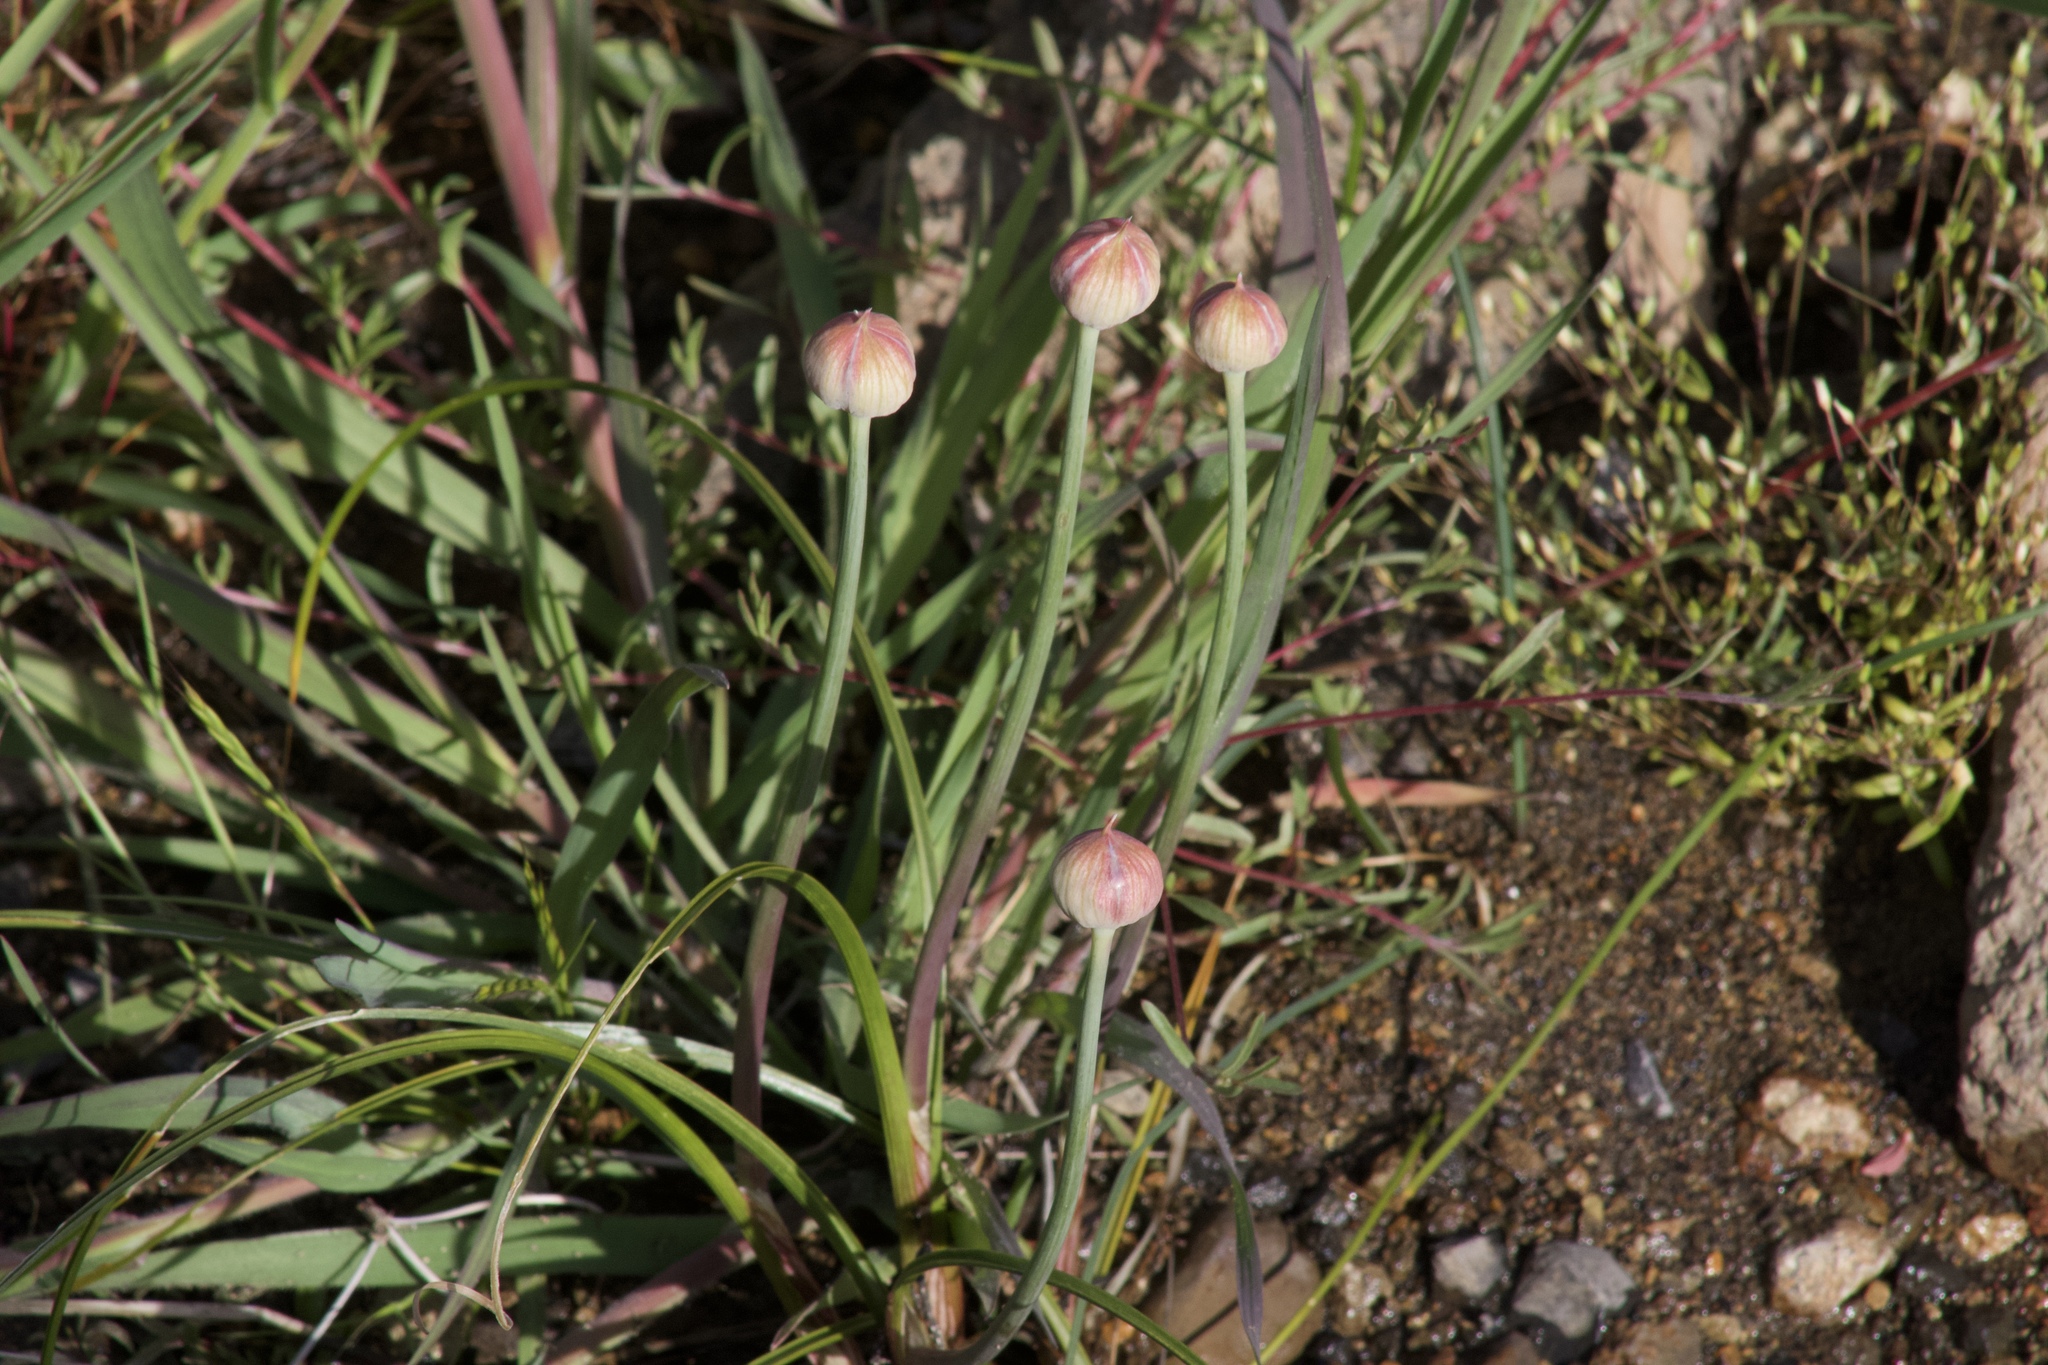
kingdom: Plantae
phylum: Tracheophyta
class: Liliopsida
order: Asparagales
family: Amaryllidaceae
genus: Allium
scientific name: Allium amplectens
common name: Narrow-leaved onion
